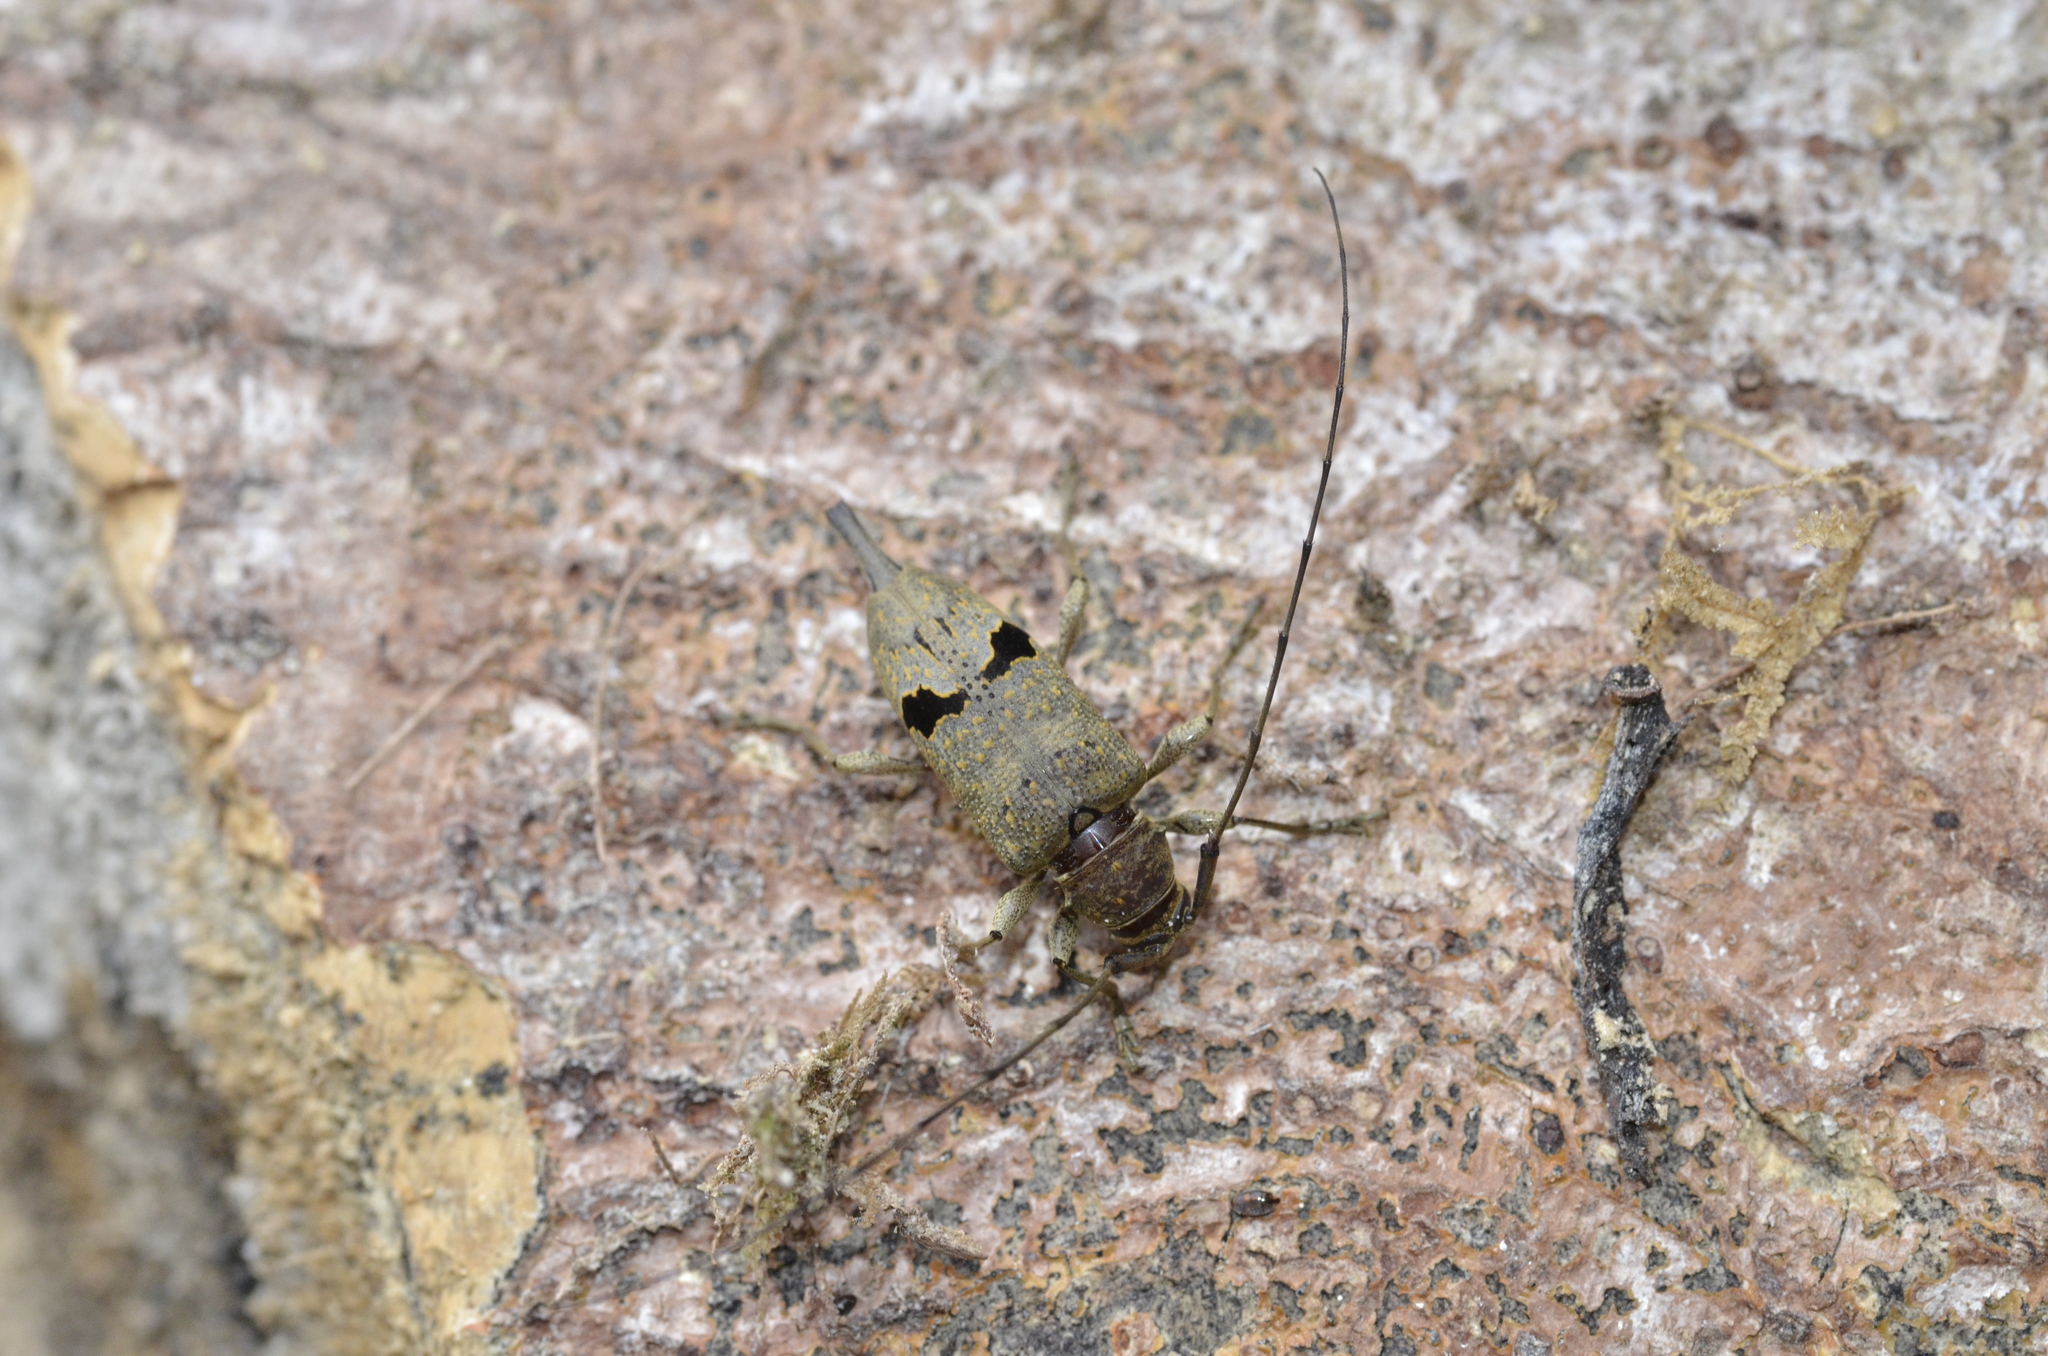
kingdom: Animalia
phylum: Arthropoda
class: Insecta
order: Coleoptera
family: Cerambycidae
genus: Hylettus
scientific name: Hylettus coenobita
